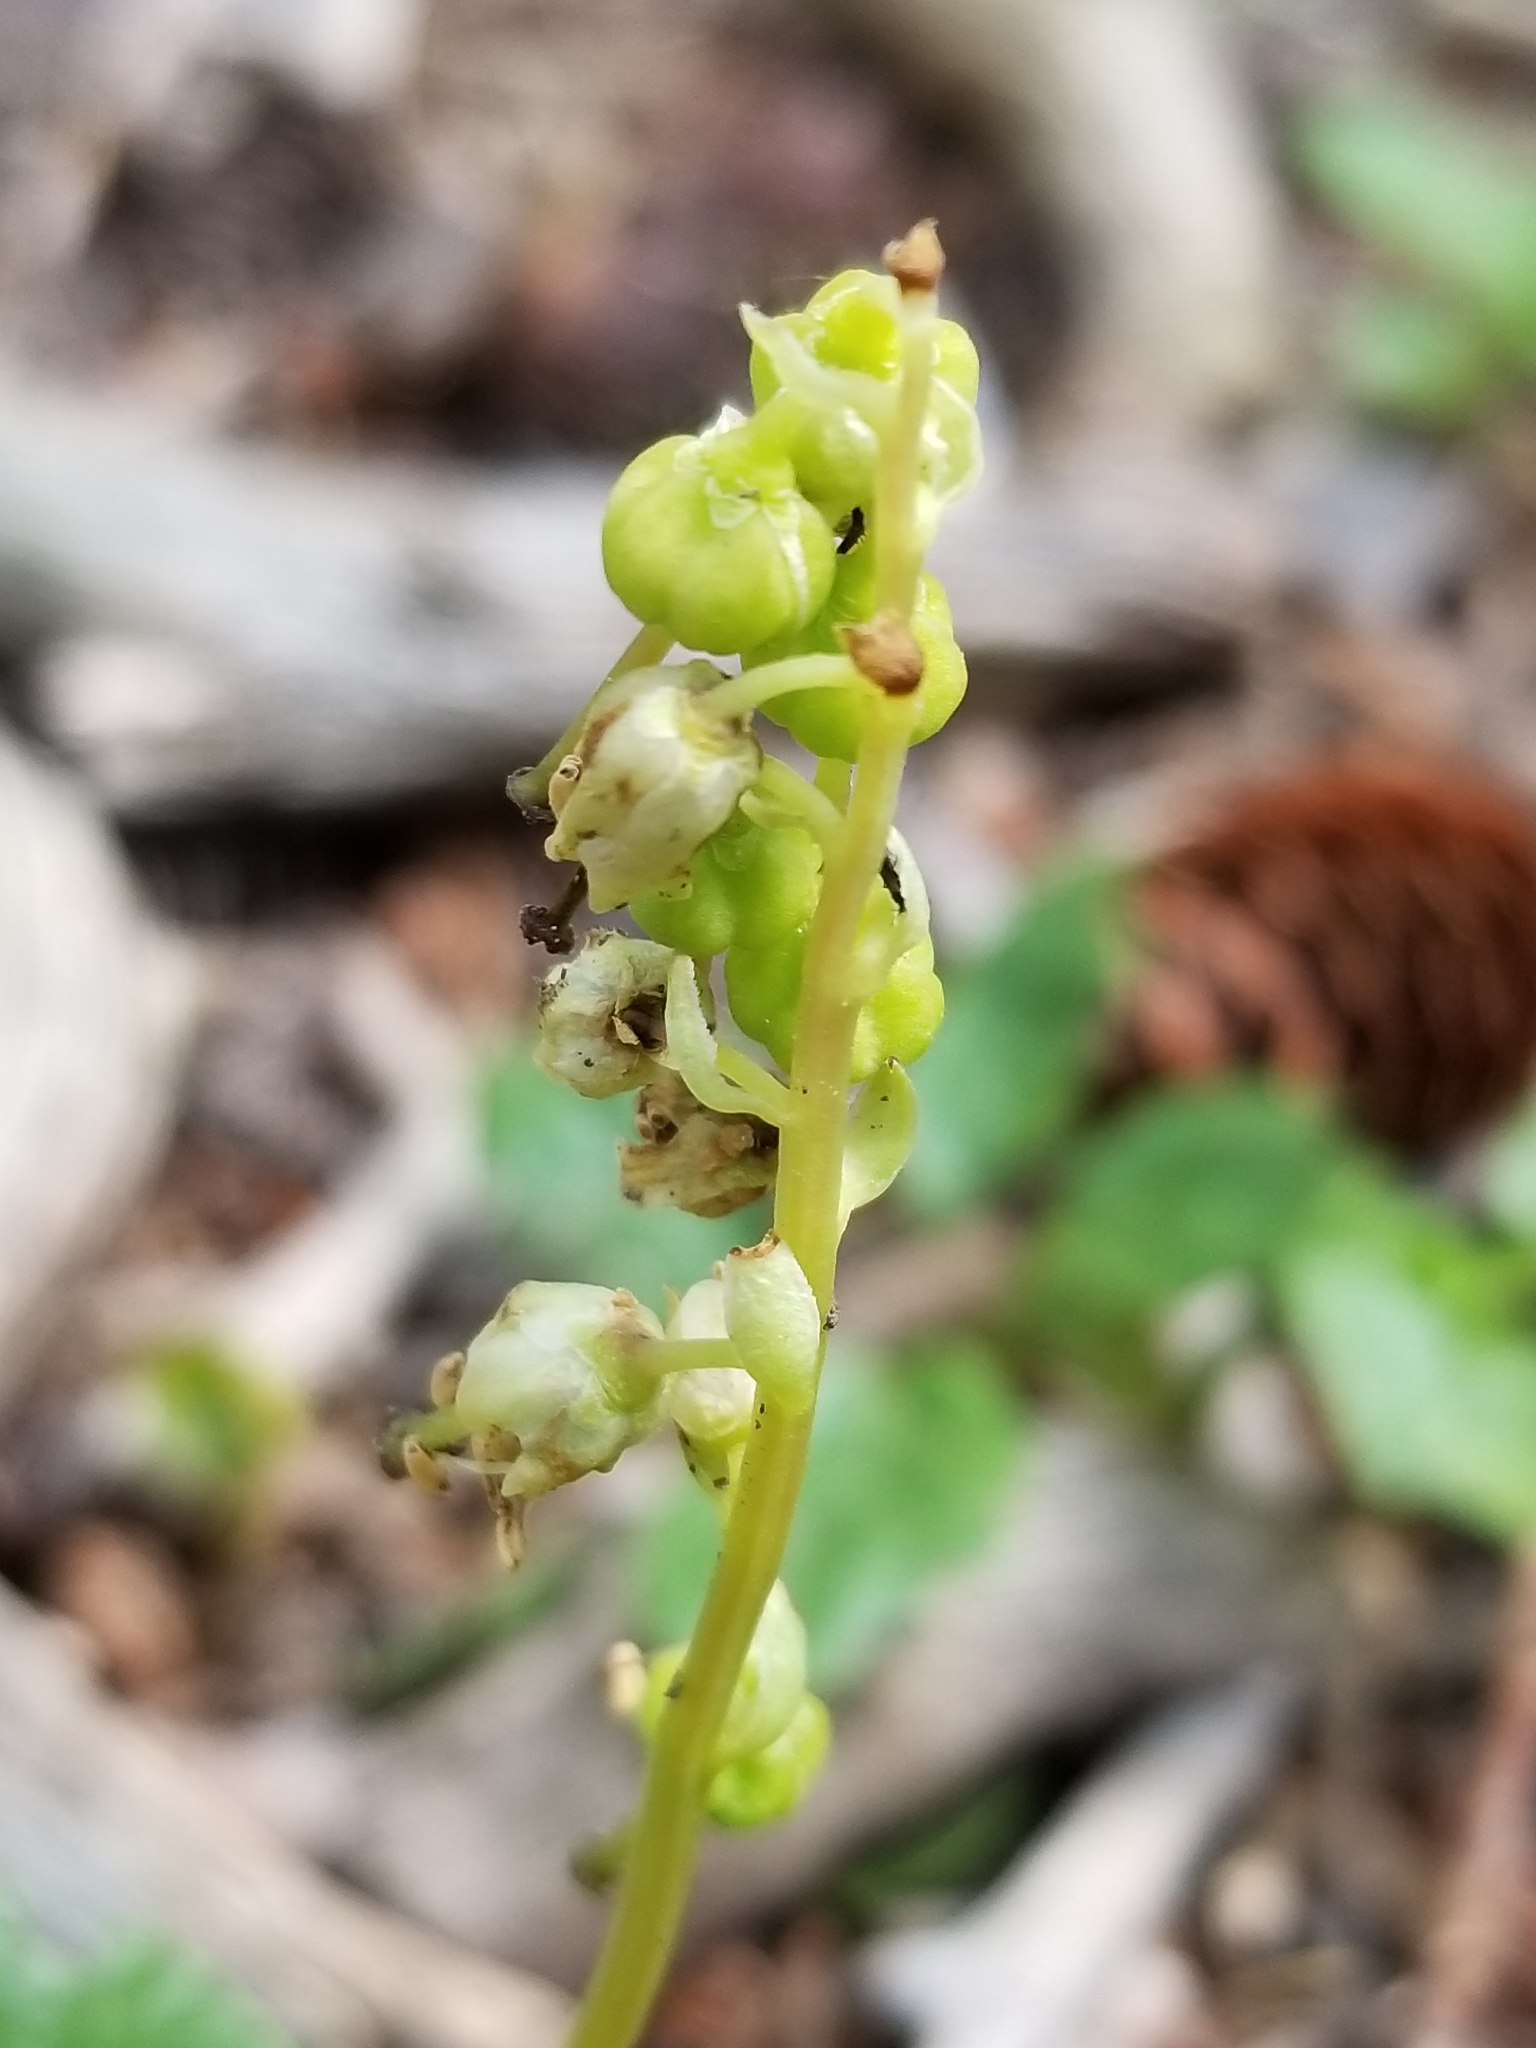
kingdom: Plantae
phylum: Tracheophyta
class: Magnoliopsida
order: Ericales
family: Ericaceae
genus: Orthilia
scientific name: Orthilia secunda
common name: One-sided orthilia
